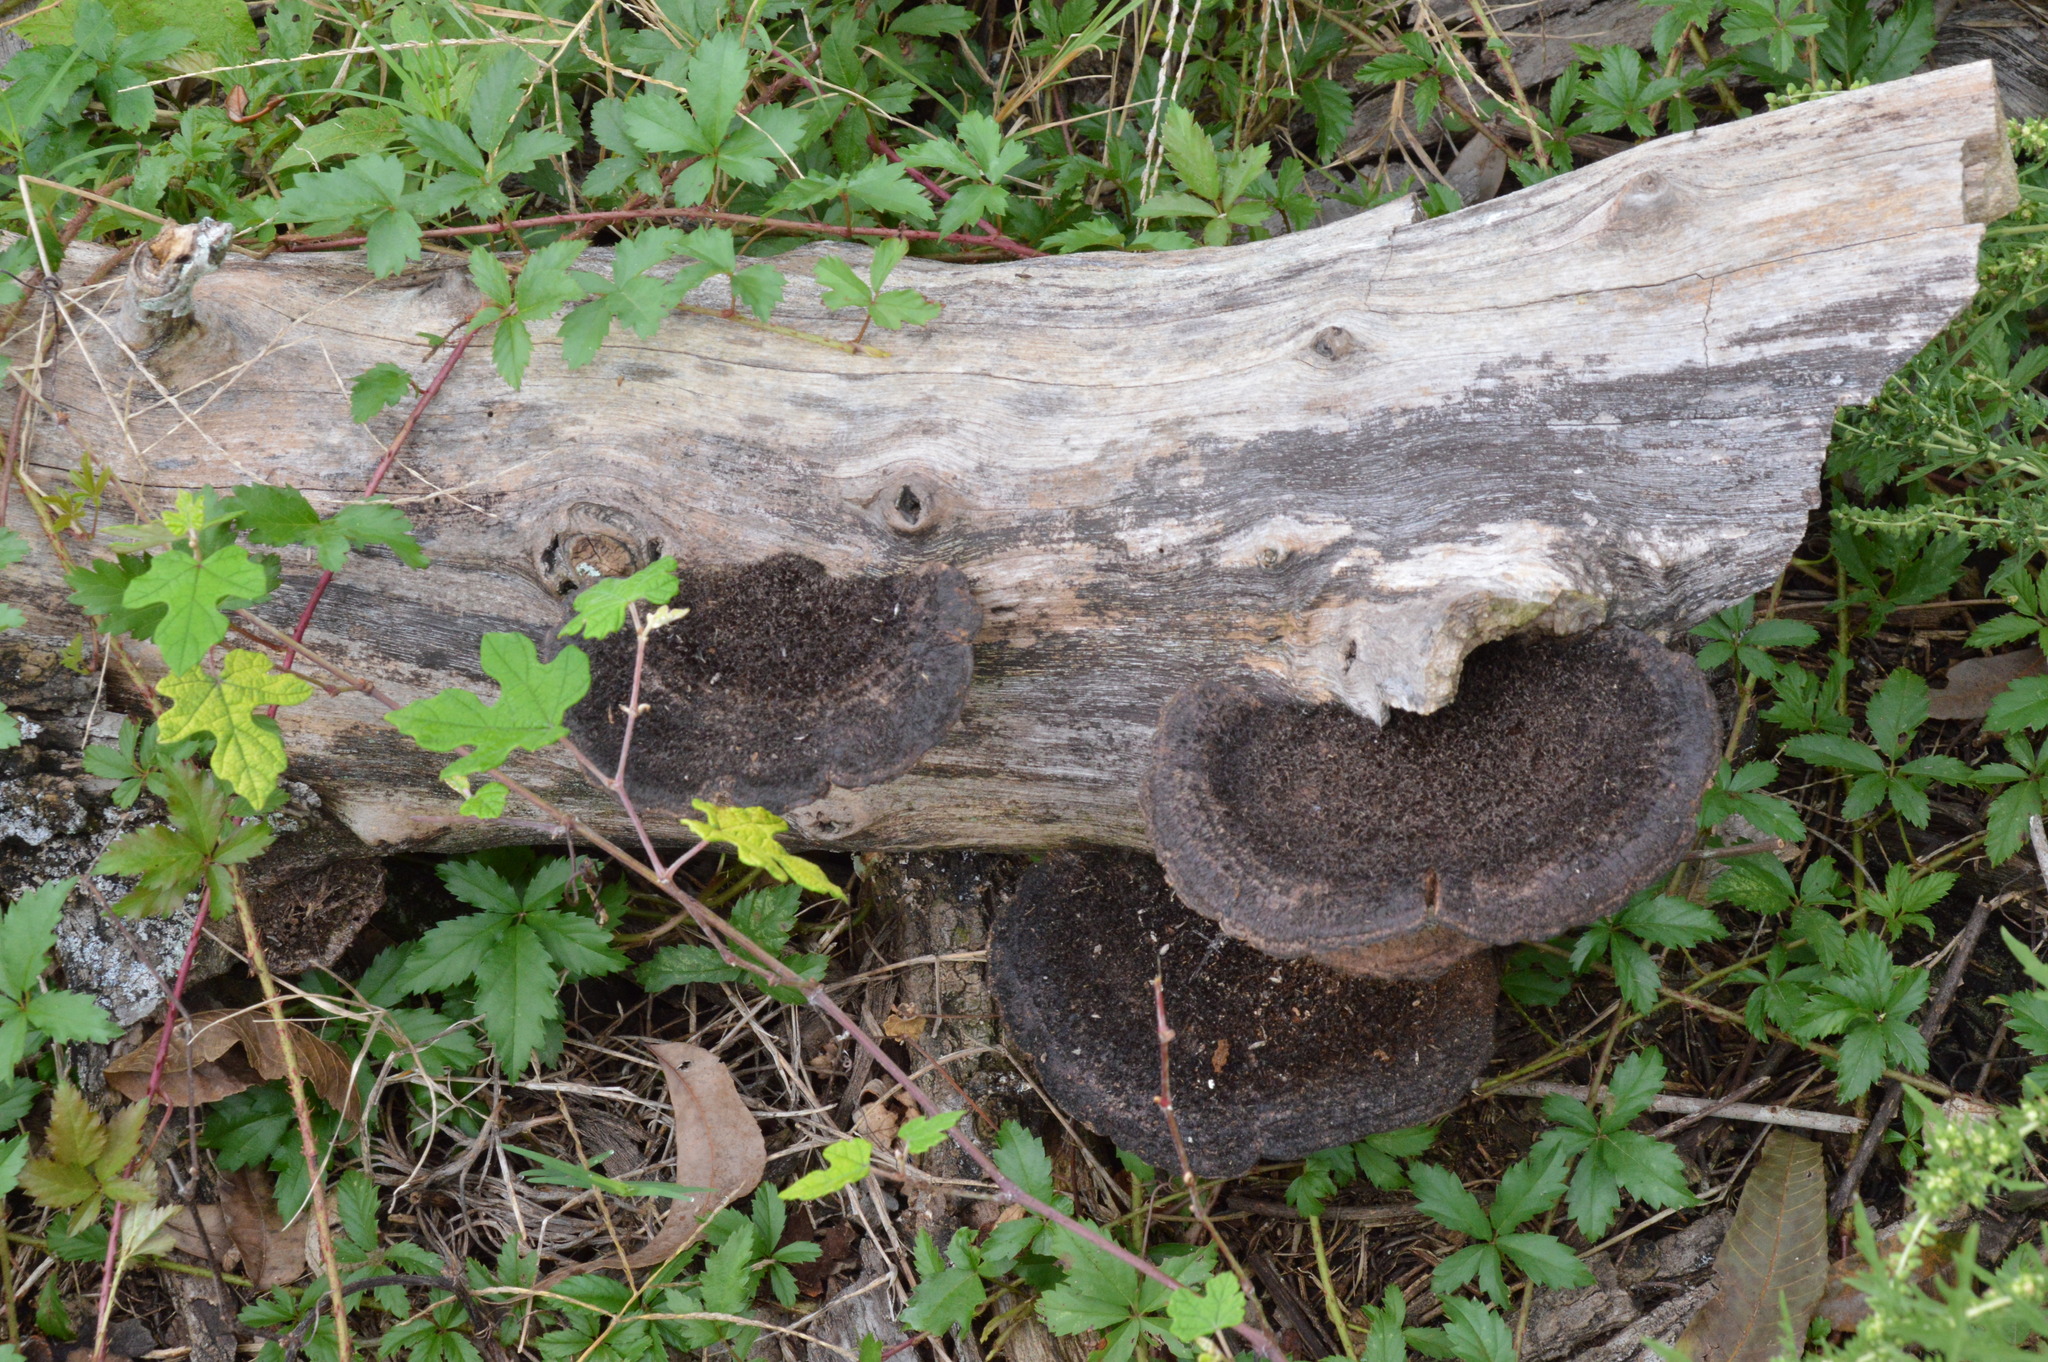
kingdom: Fungi
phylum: Basidiomycota
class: Agaricomycetes
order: Polyporales
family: Cerrenaceae
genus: Cerrena
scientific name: Cerrena hydnoides
